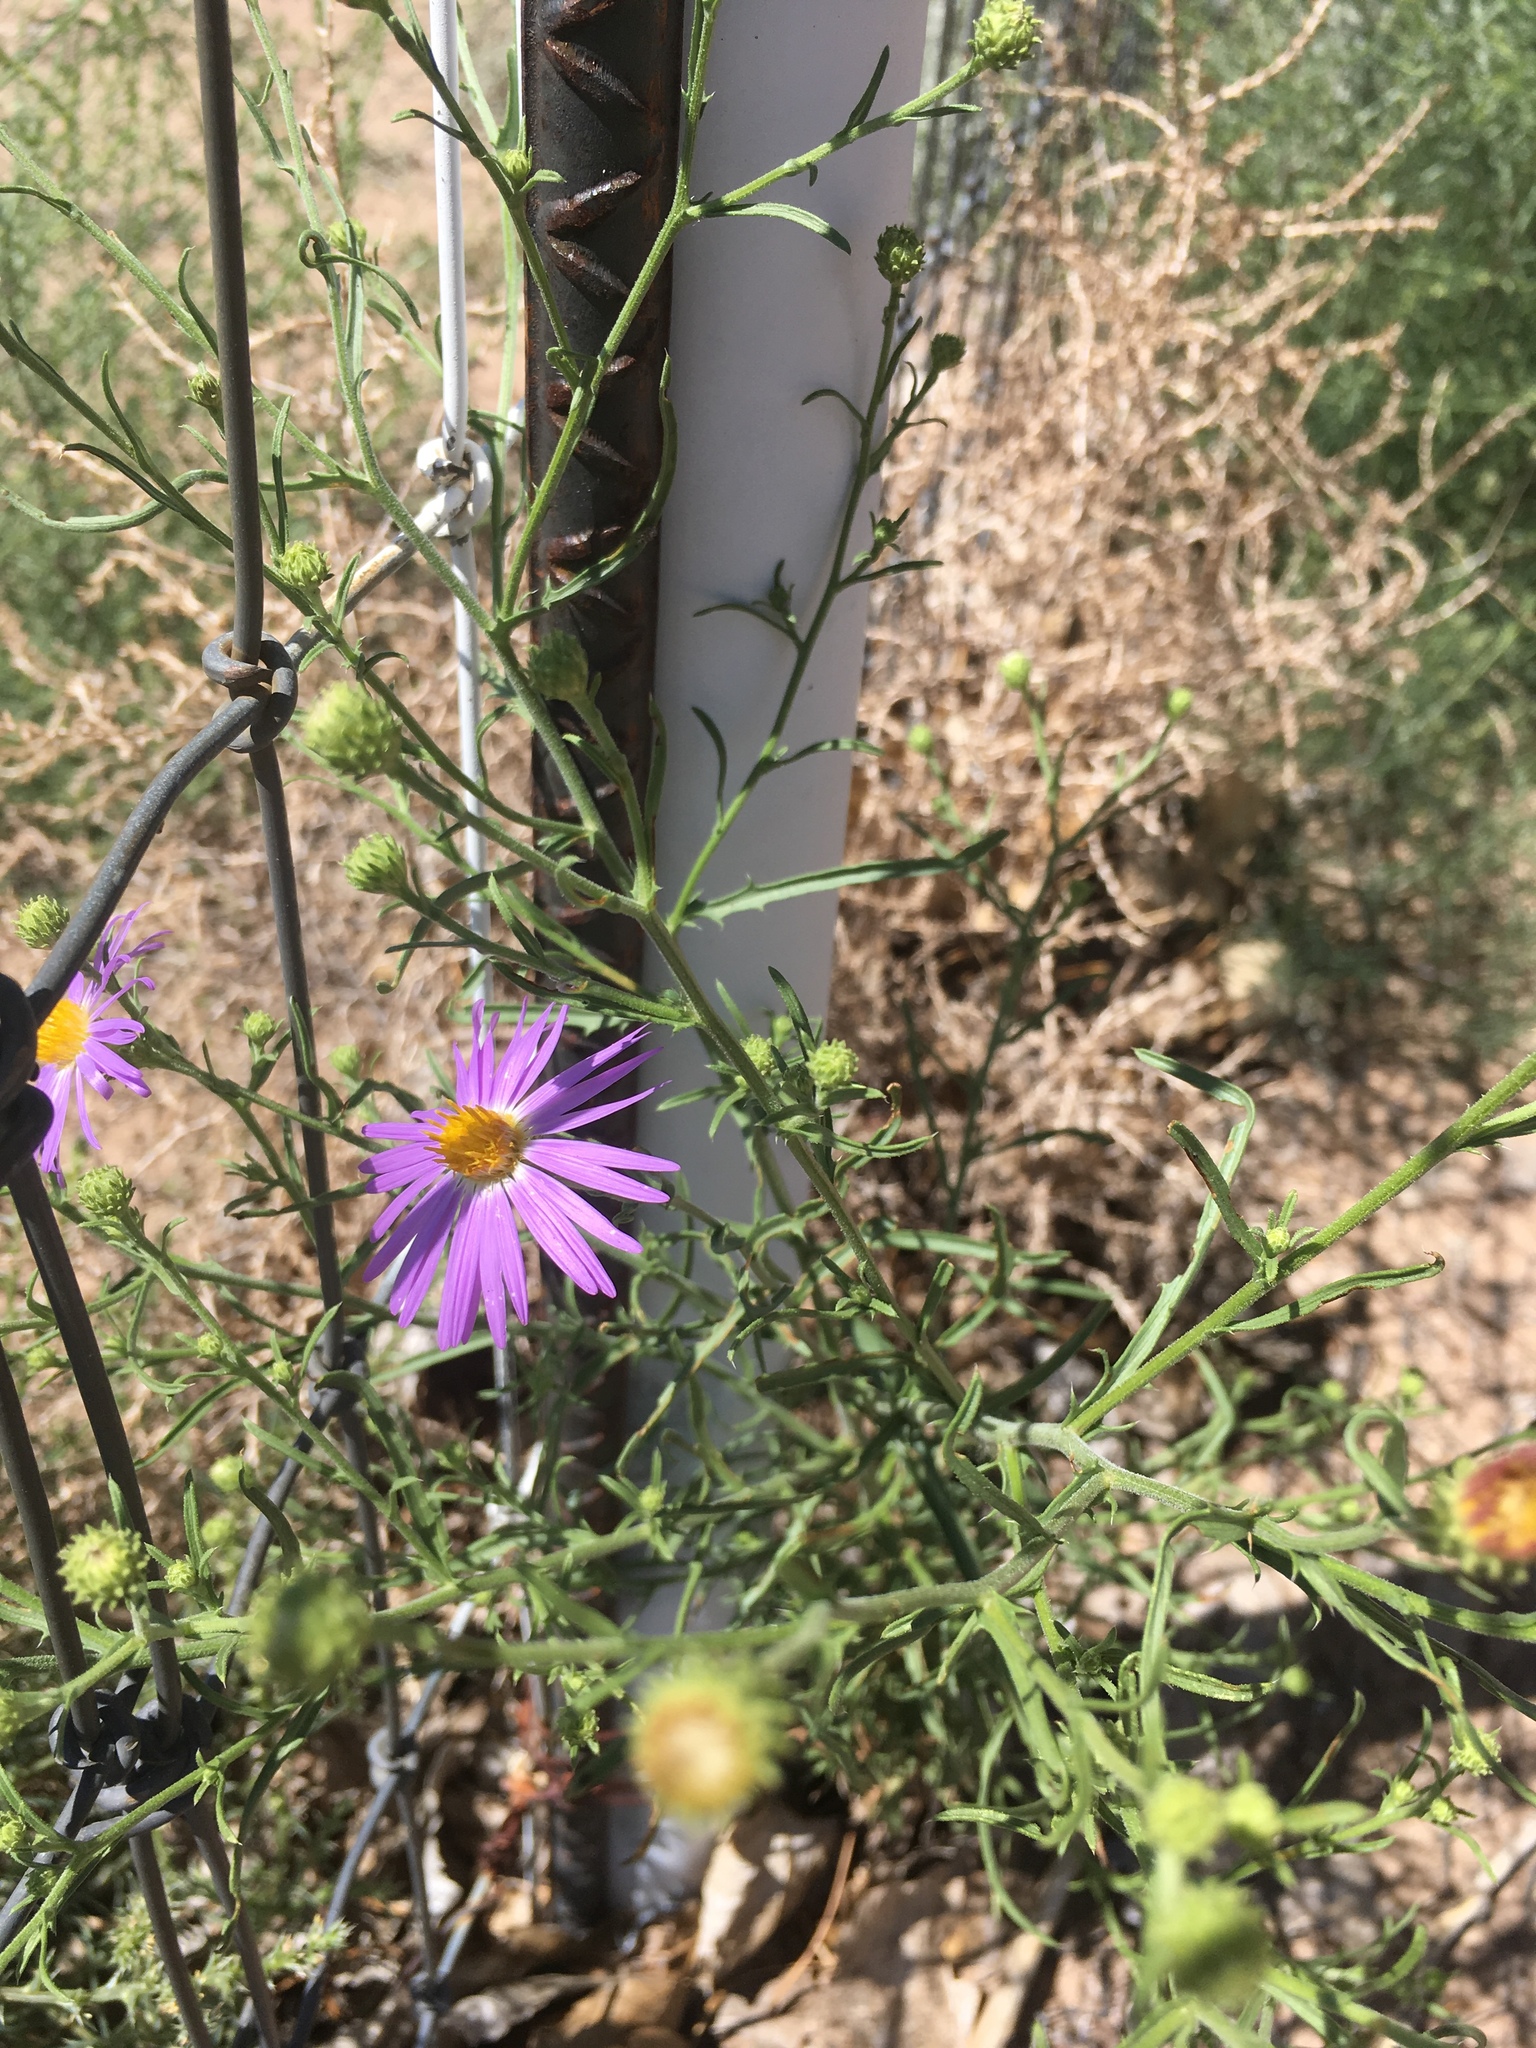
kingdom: Plantae
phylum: Tracheophyta
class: Magnoliopsida
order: Asterales
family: Asteraceae
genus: Dieteria
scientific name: Dieteria canescens
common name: Hoary-aster
